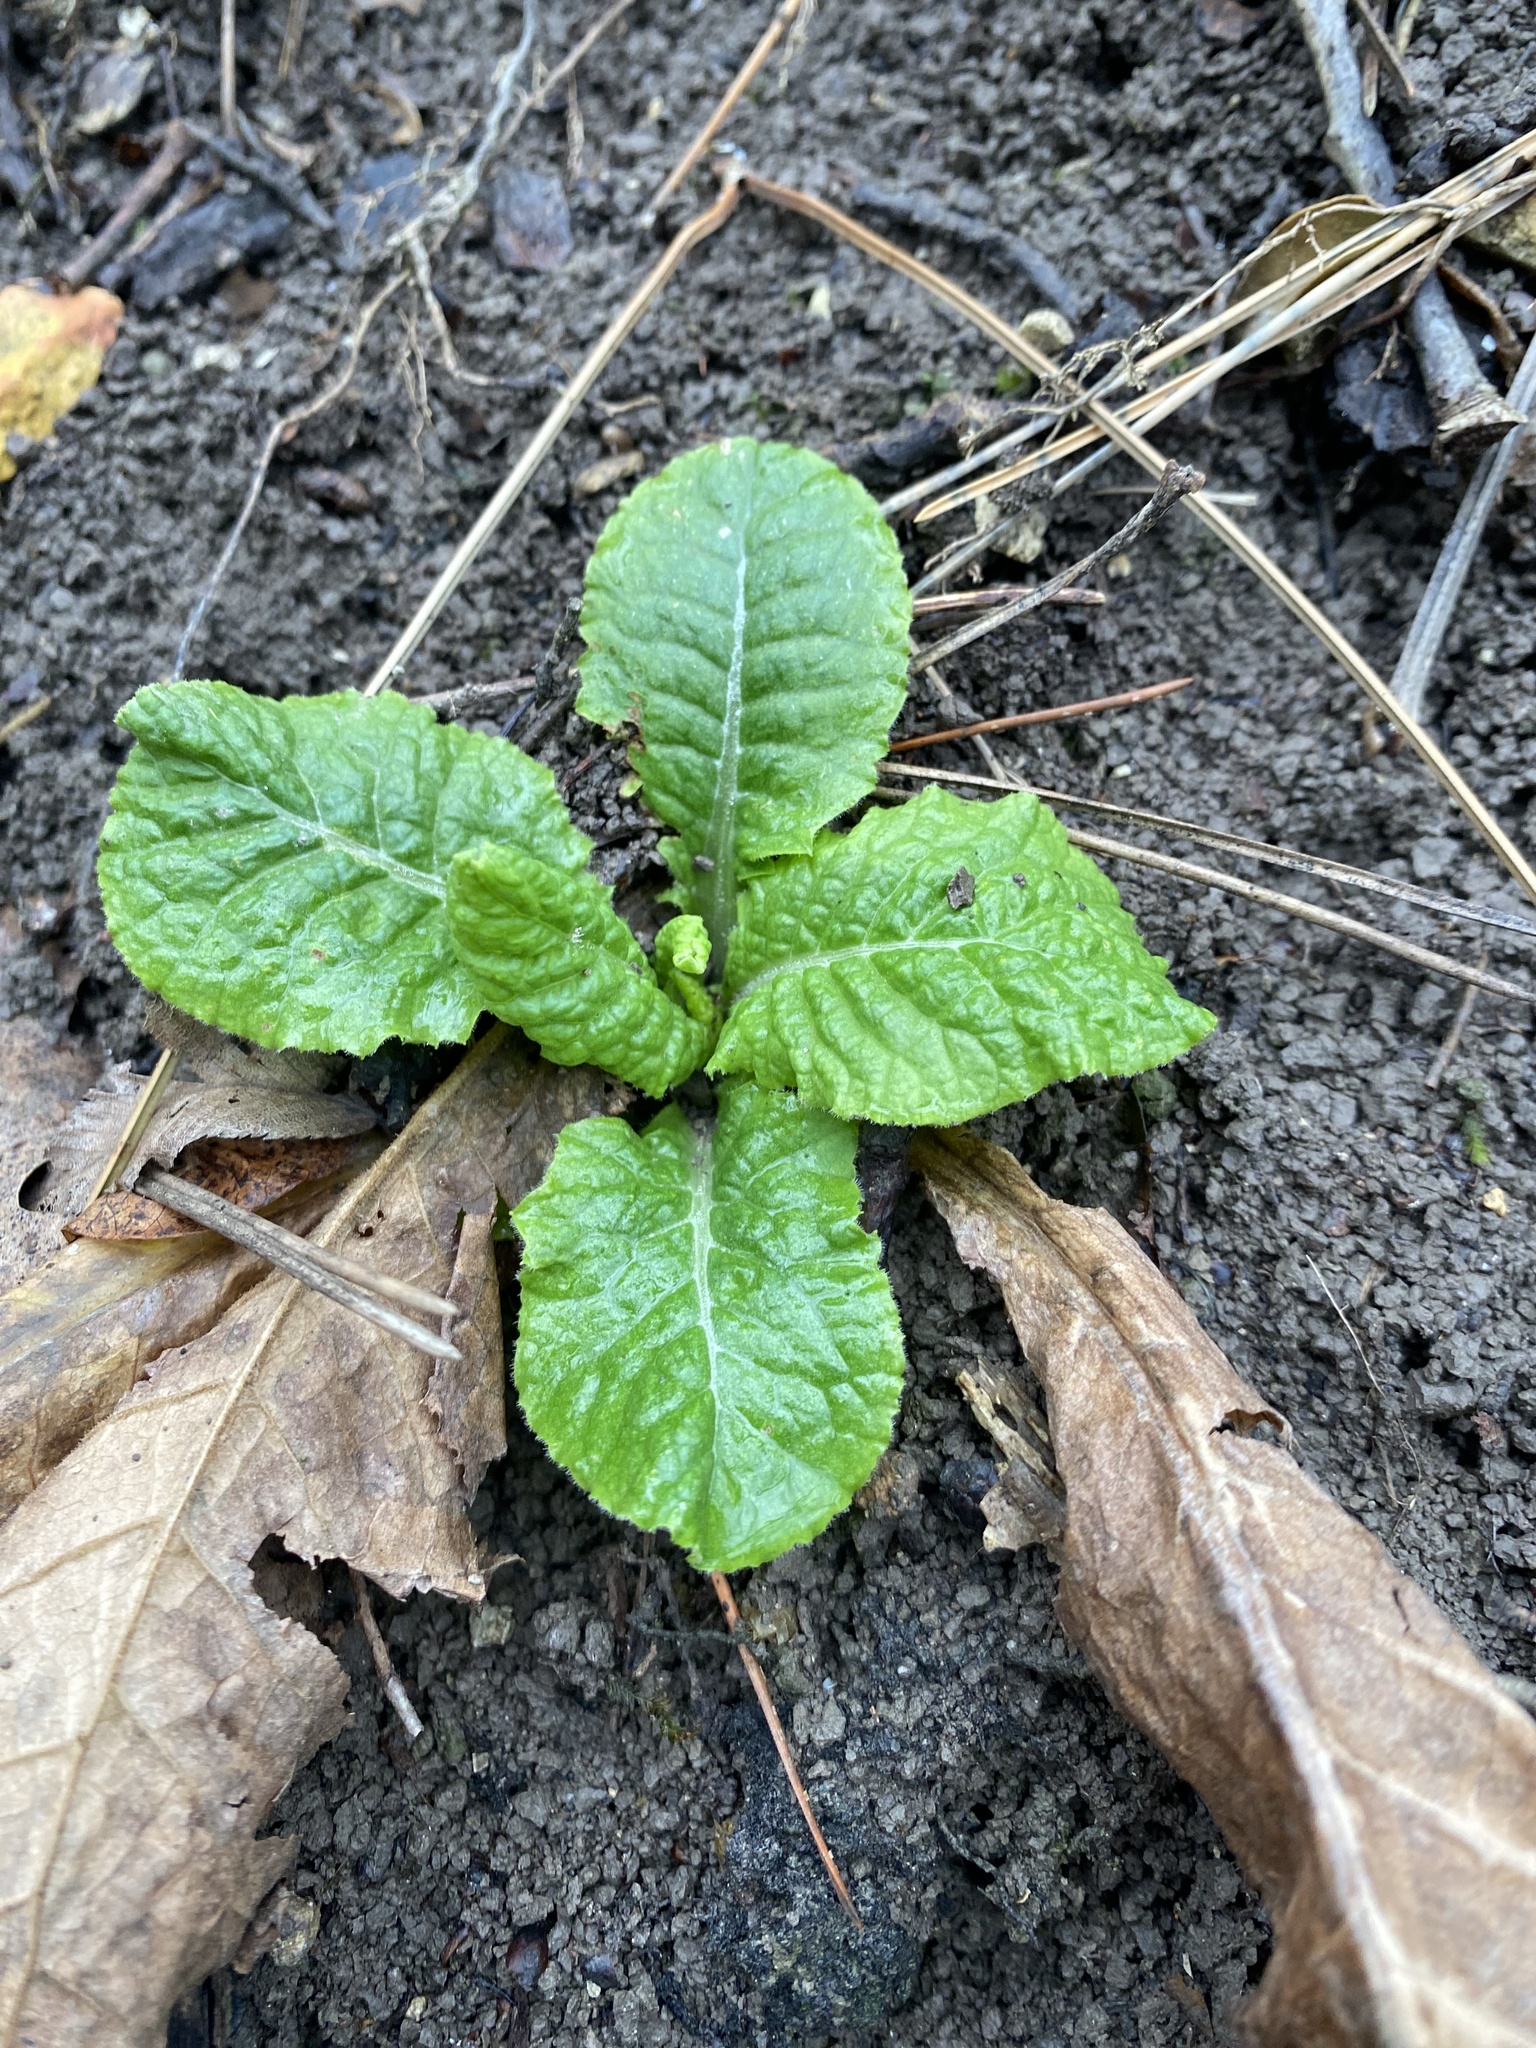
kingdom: Plantae
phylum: Tracheophyta
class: Magnoliopsida
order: Ericales
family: Primulaceae
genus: Primula
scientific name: Primula vulgaris
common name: Primrose
